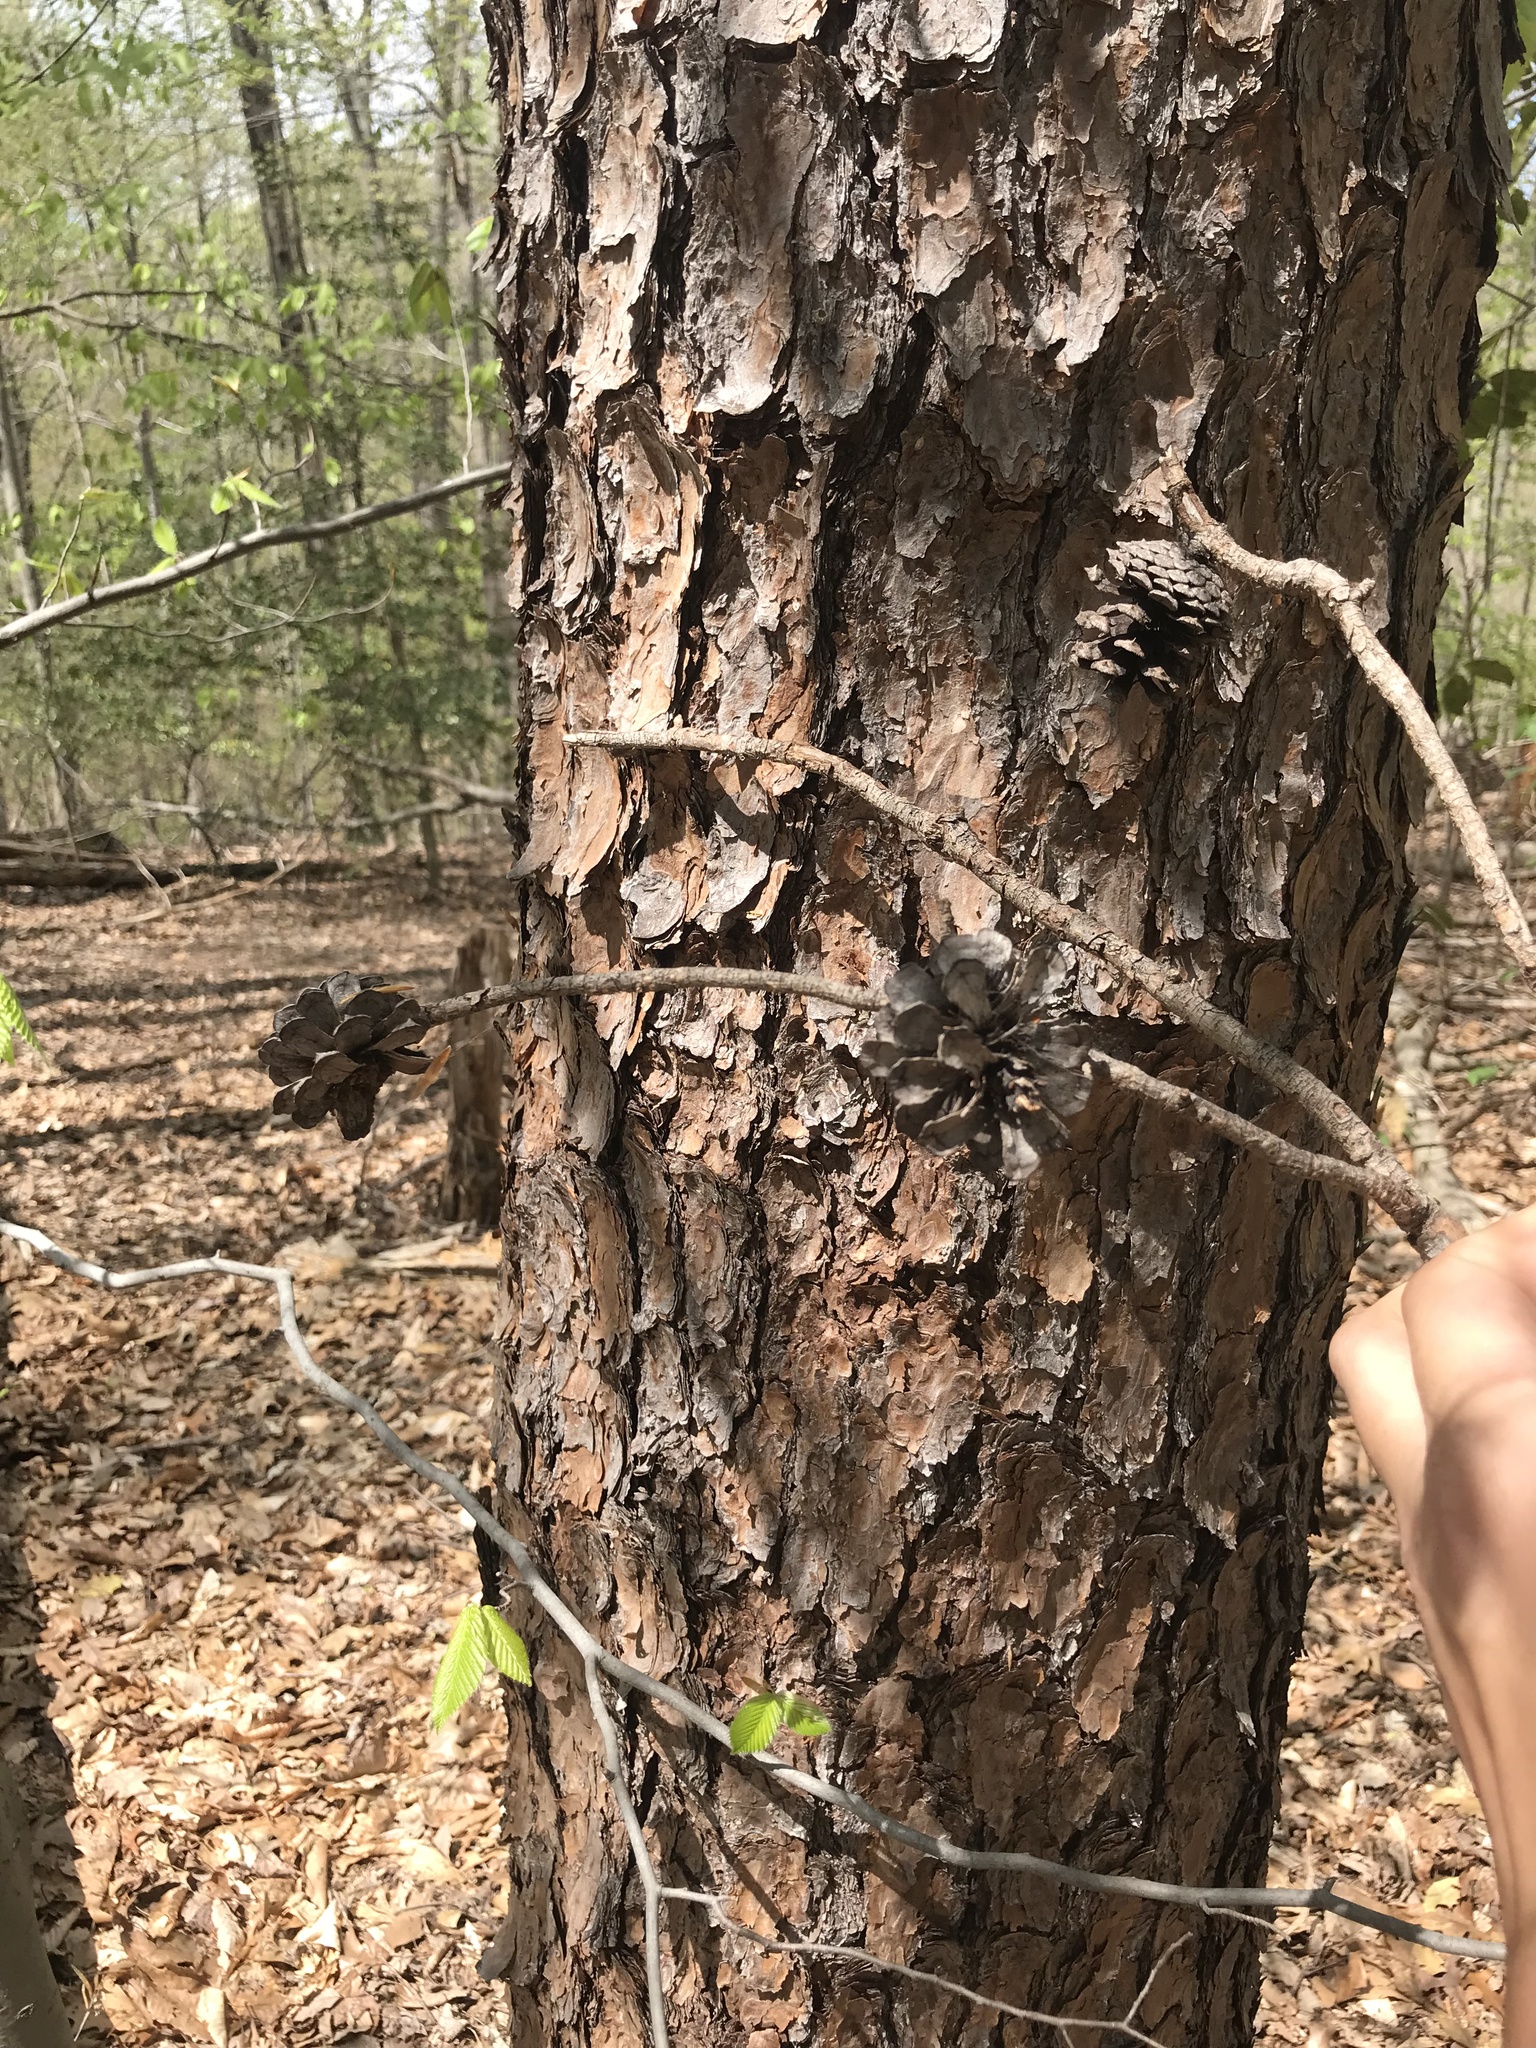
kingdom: Plantae
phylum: Tracheophyta
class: Pinopsida
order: Pinales
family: Pinaceae
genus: Pinus
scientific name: Pinus virginiana
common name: Scrub pine
